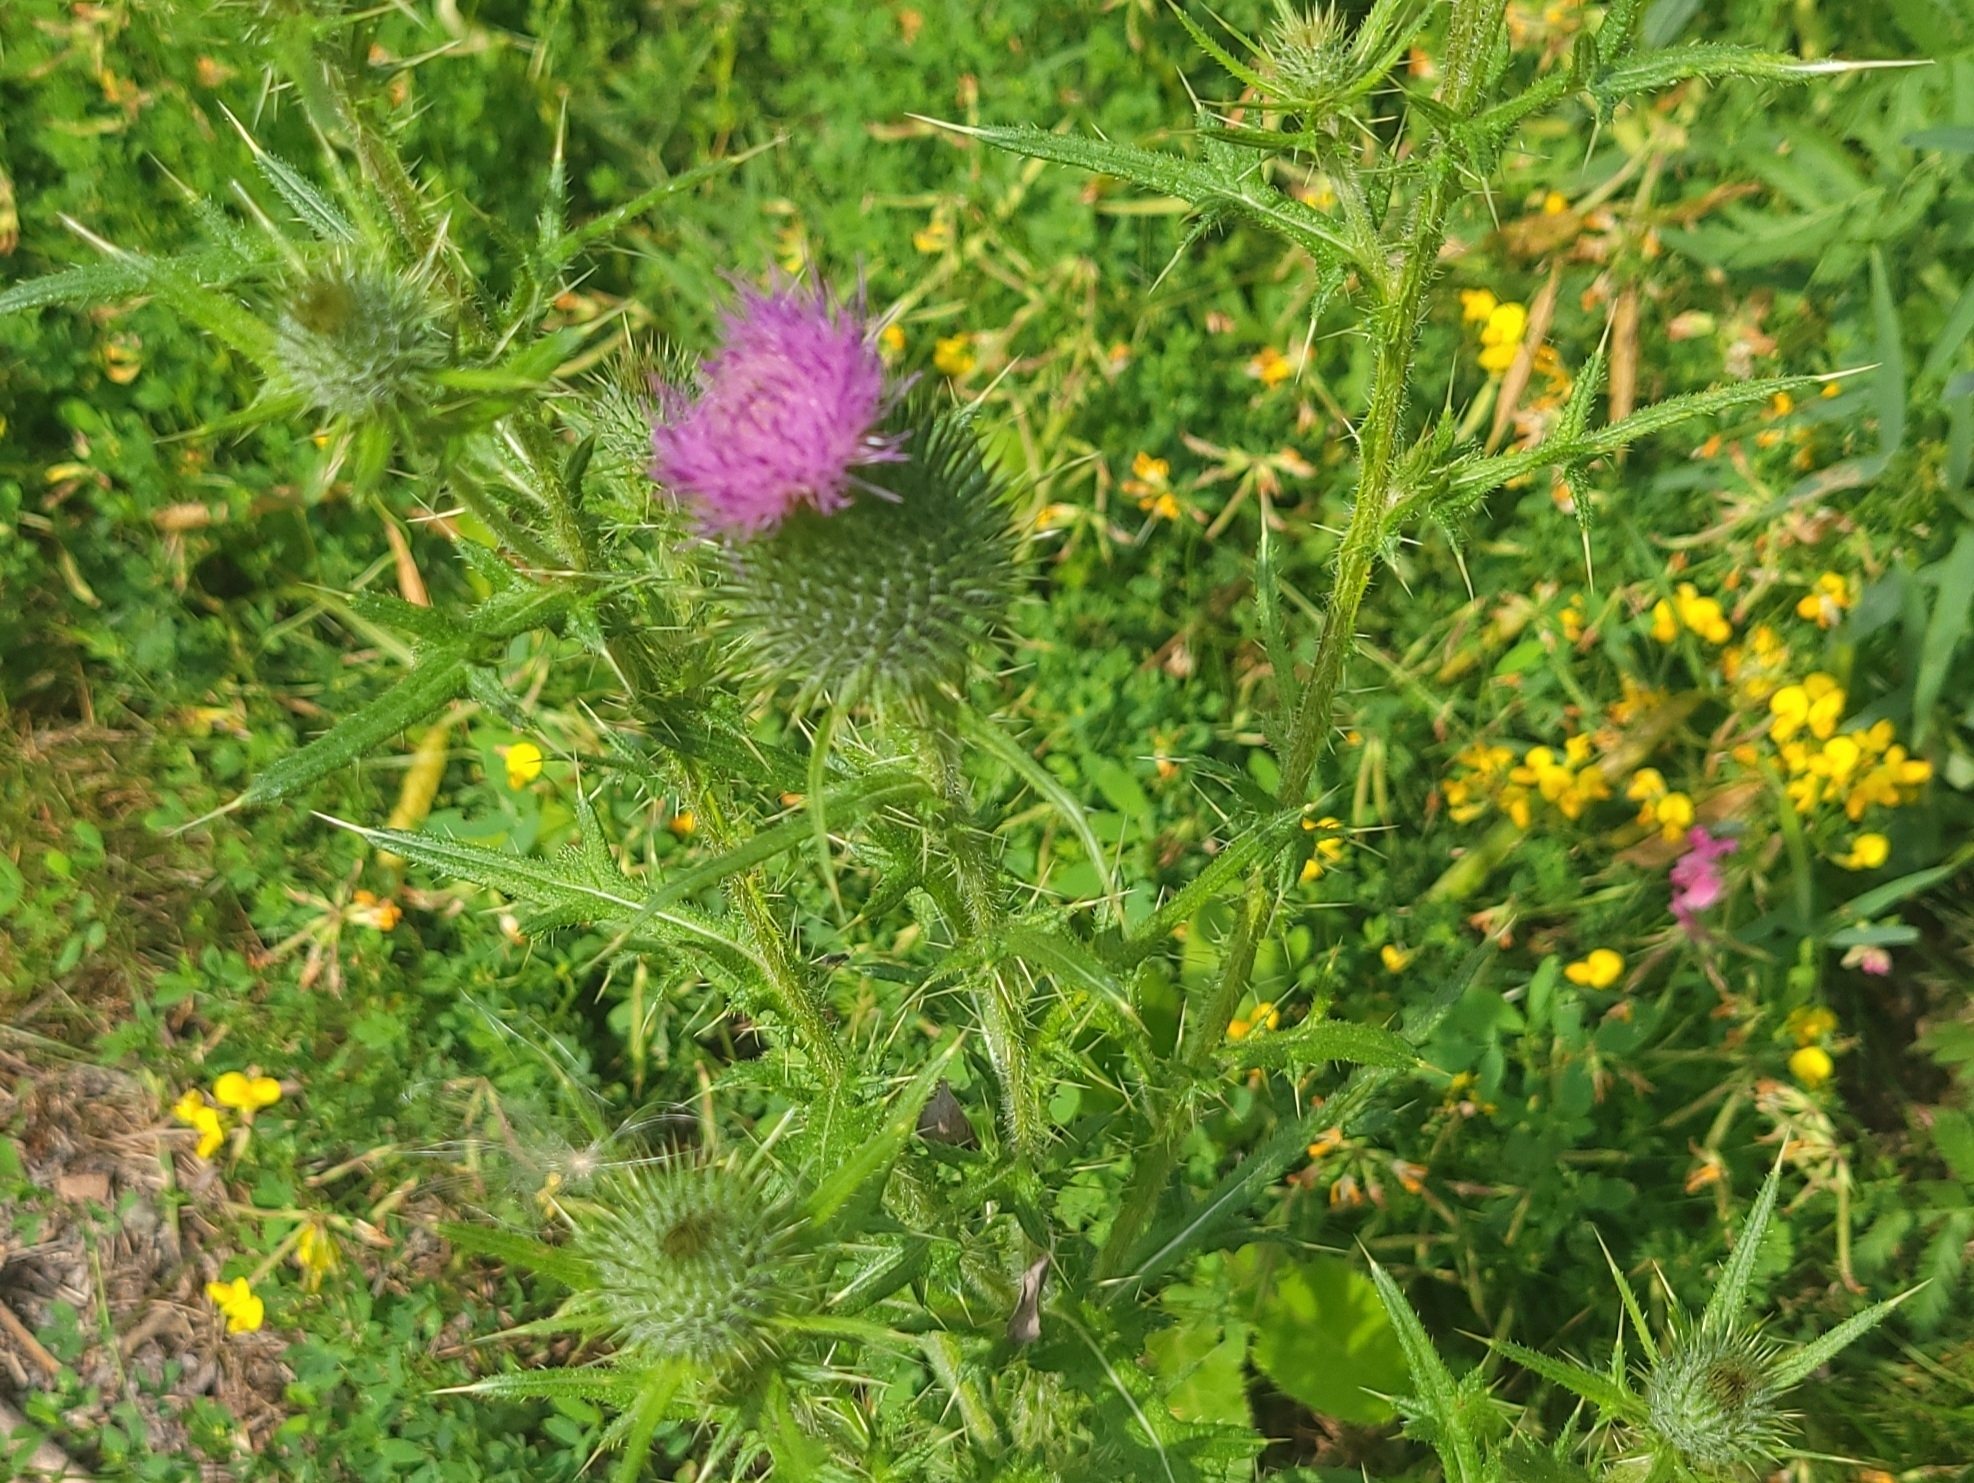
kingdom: Plantae
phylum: Tracheophyta
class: Magnoliopsida
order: Asterales
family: Asteraceae
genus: Cirsium
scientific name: Cirsium vulgare
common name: Bull thistle
